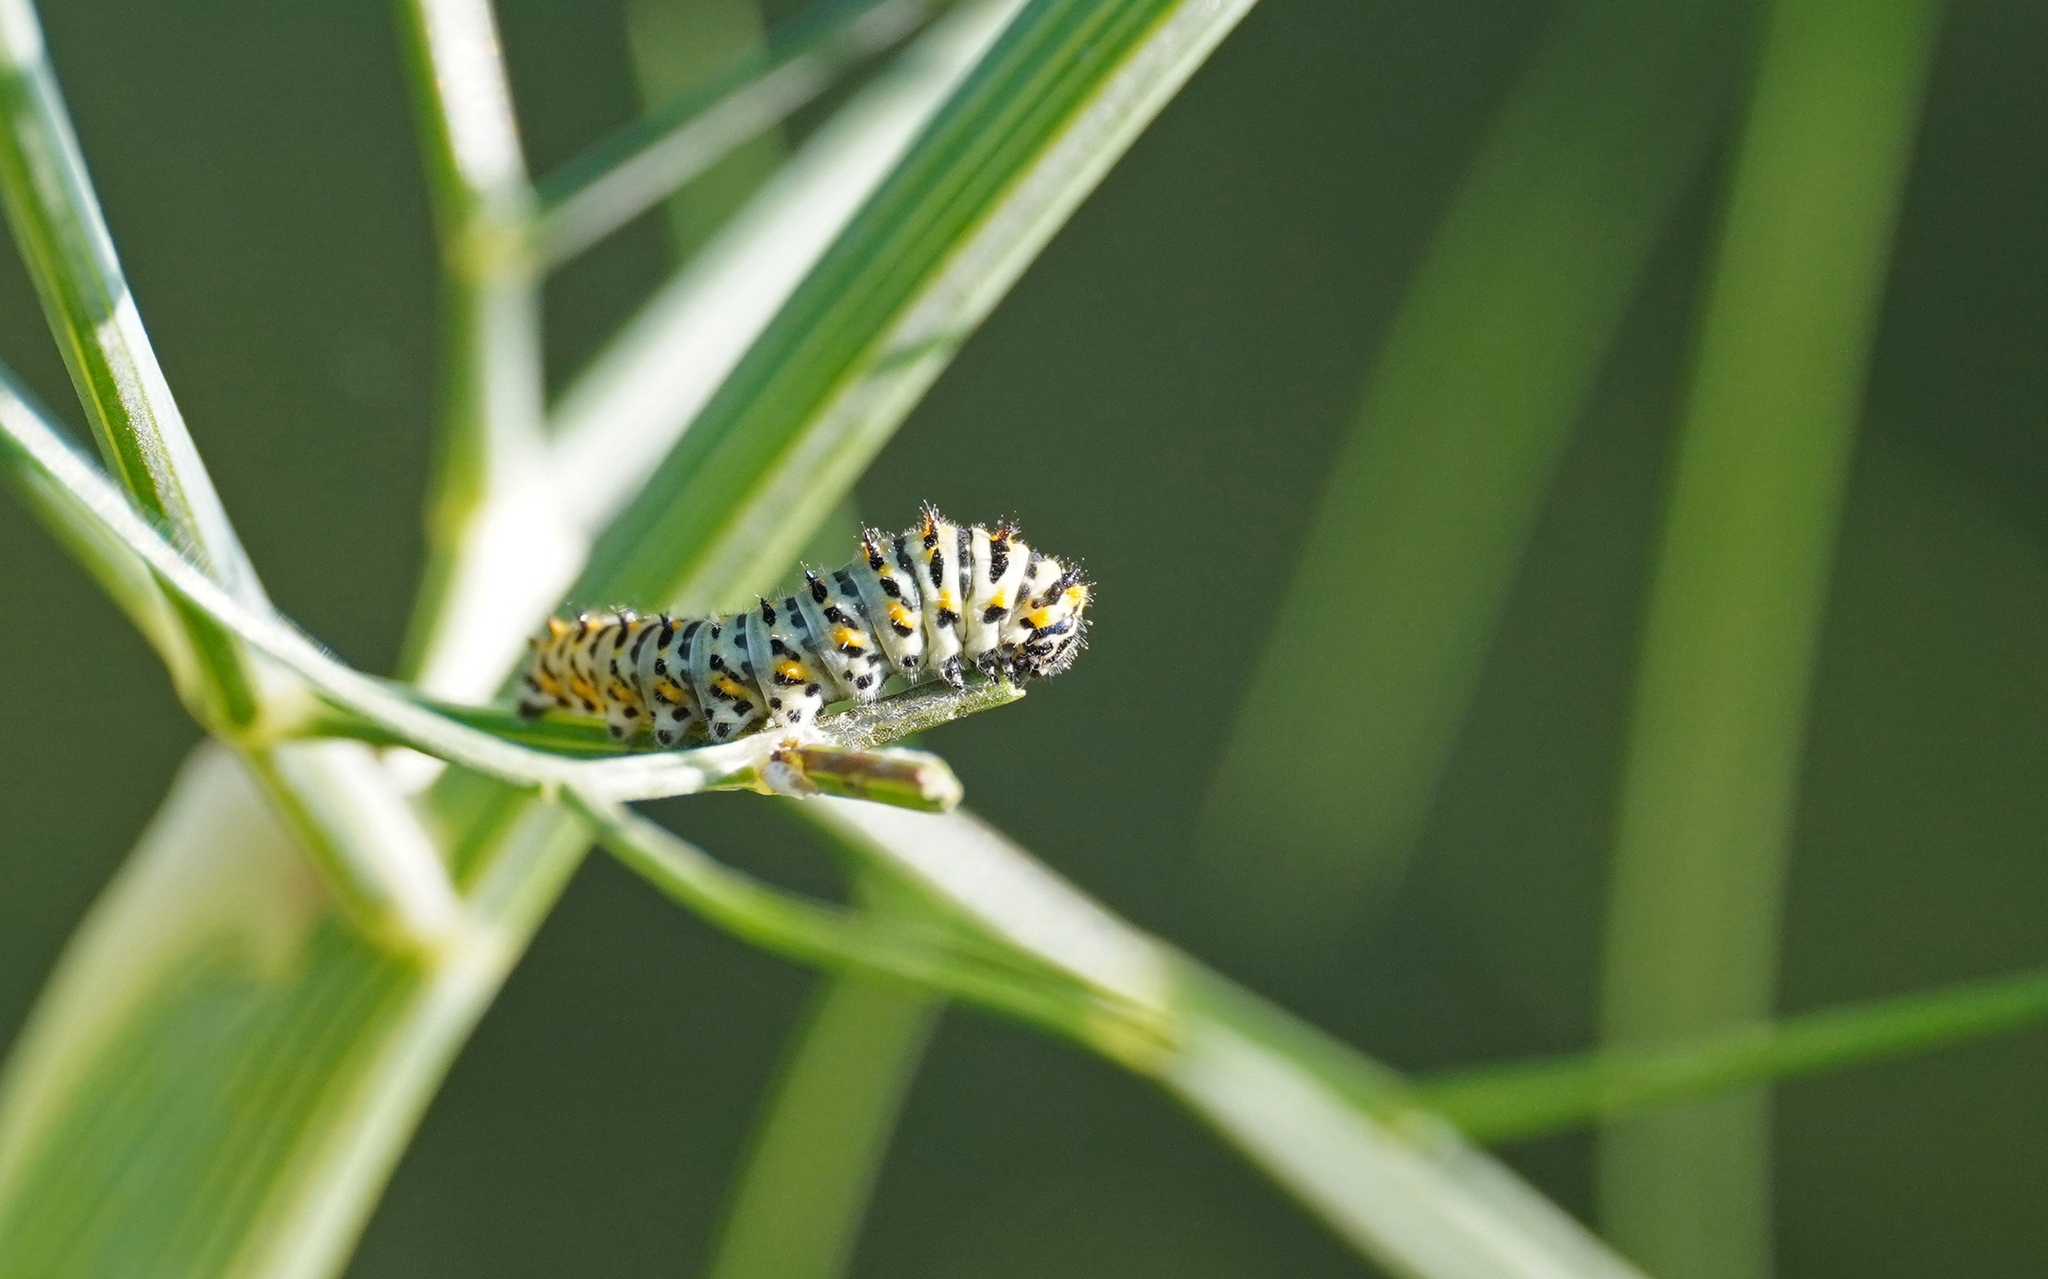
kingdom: Animalia
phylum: Arthropoda
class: Insecta
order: Lepidoptera
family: Papilionidae
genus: Papilio
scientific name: Papilio machaon
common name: Swallowtail
